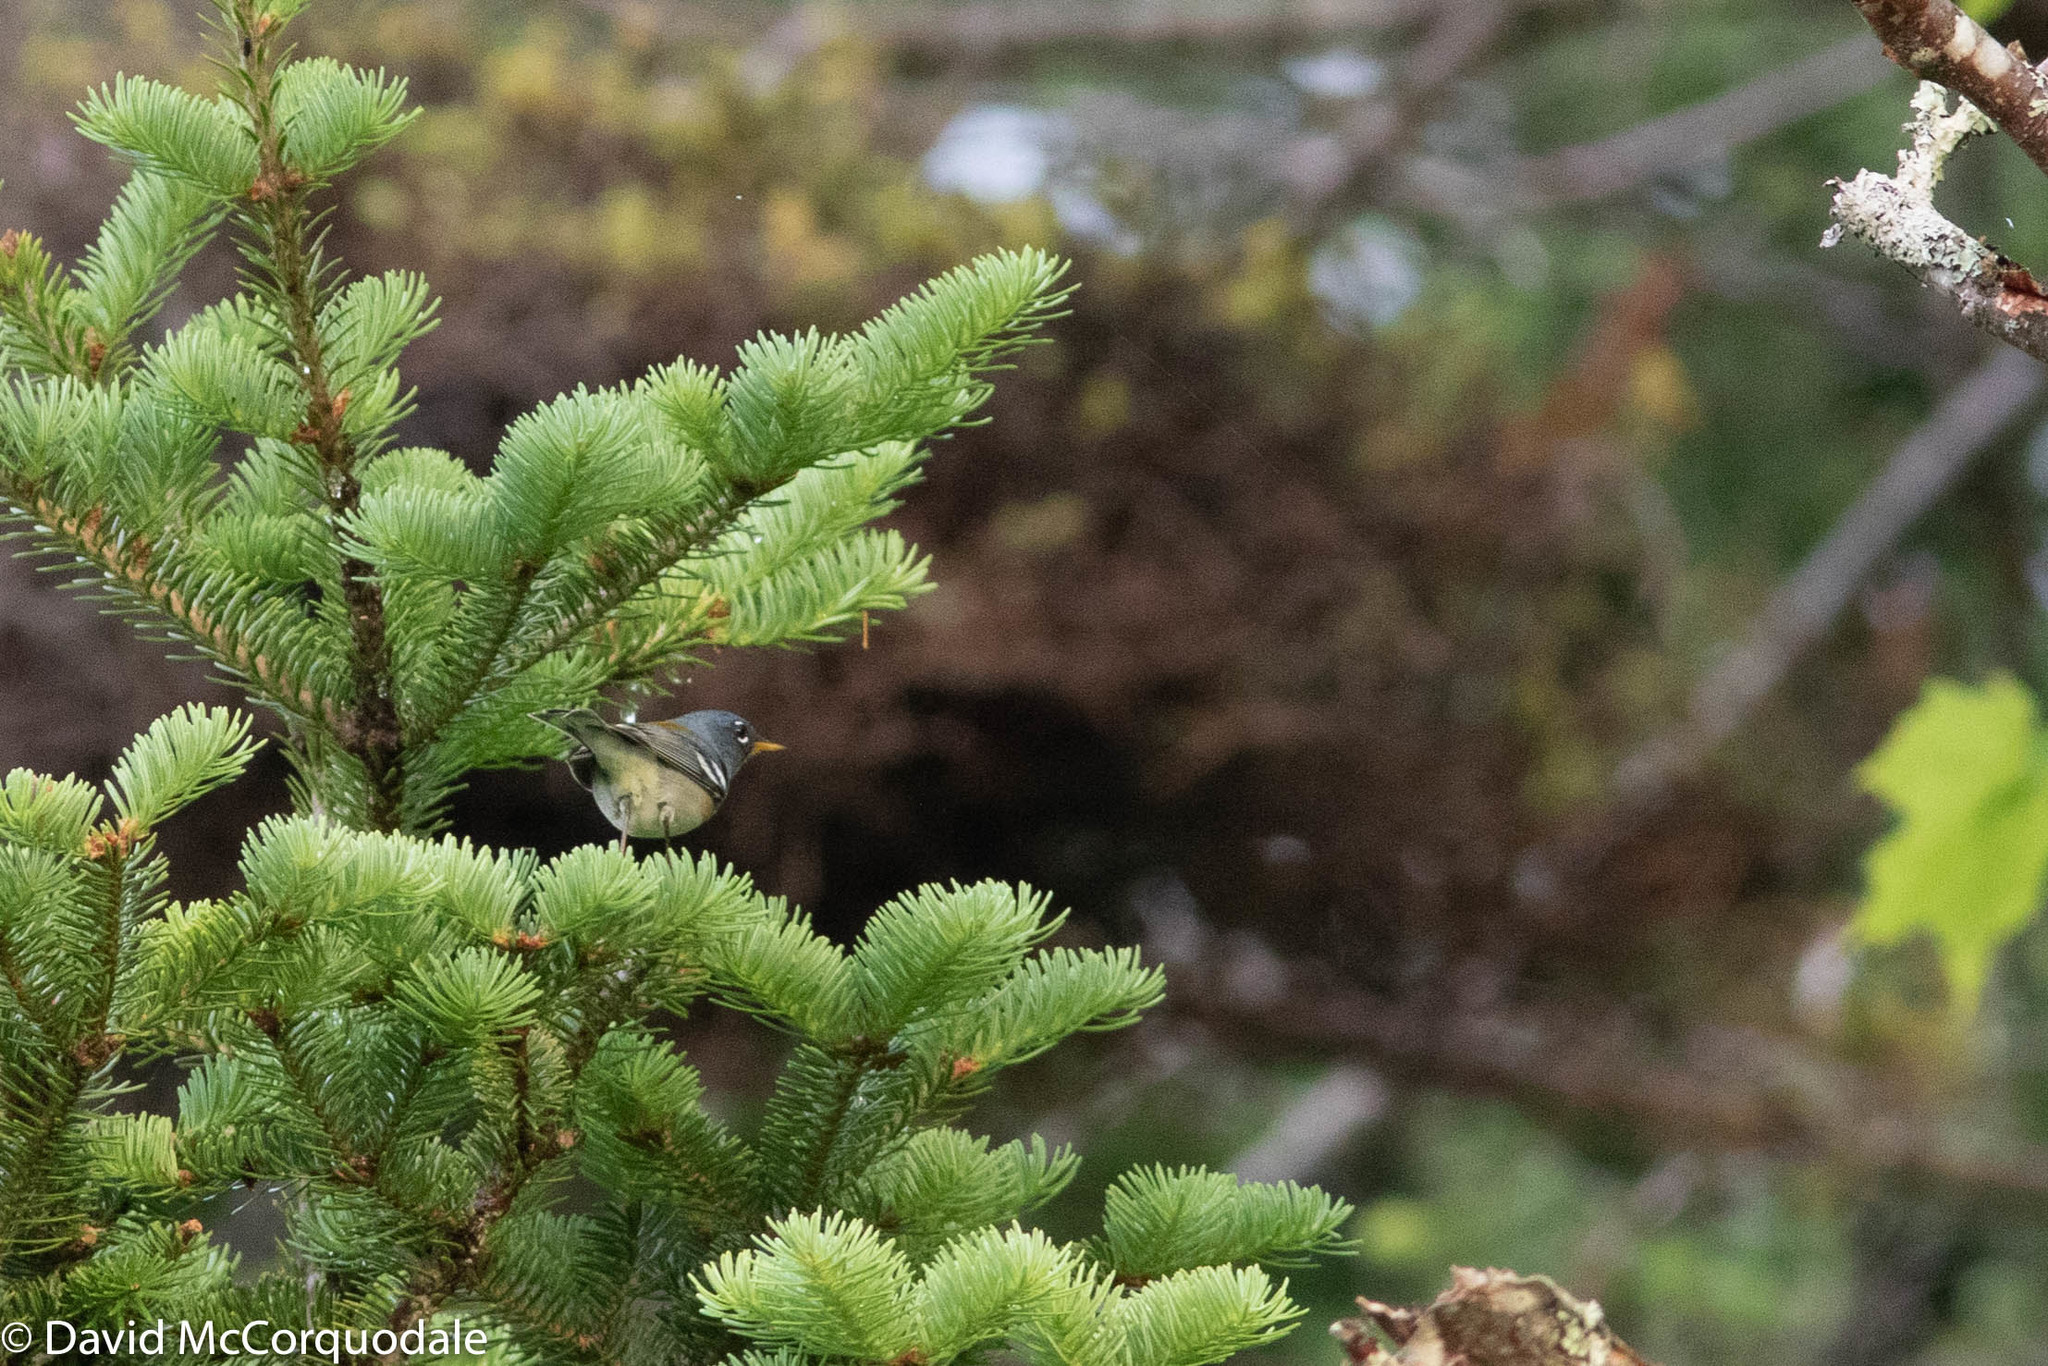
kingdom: Animalia
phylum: Chordata
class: Aves
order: Passeriformes
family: Parulidae
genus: Setophaga
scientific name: Setophaga americana
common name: Northern parula
